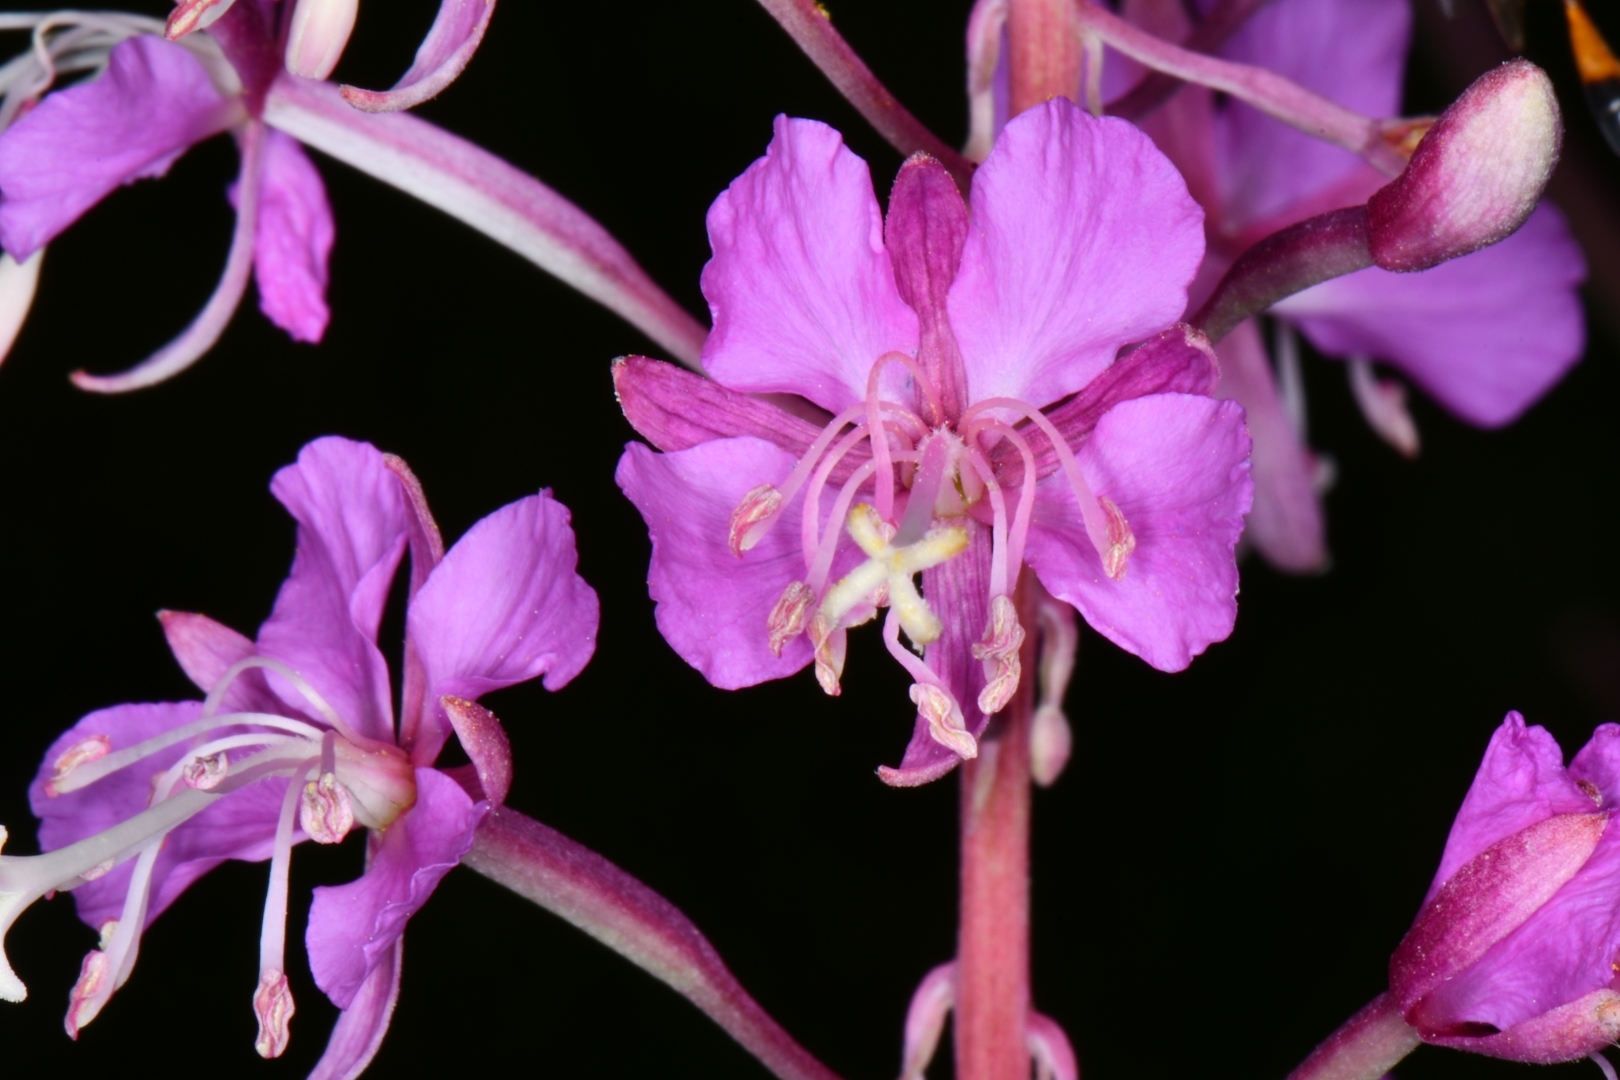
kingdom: Plantae
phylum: Tracheophyta
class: Magnoliopsida
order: Myrtales
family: Onagraceae
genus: Chamaenerion
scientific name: Chamaenerion angustifolium
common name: Fireweed
